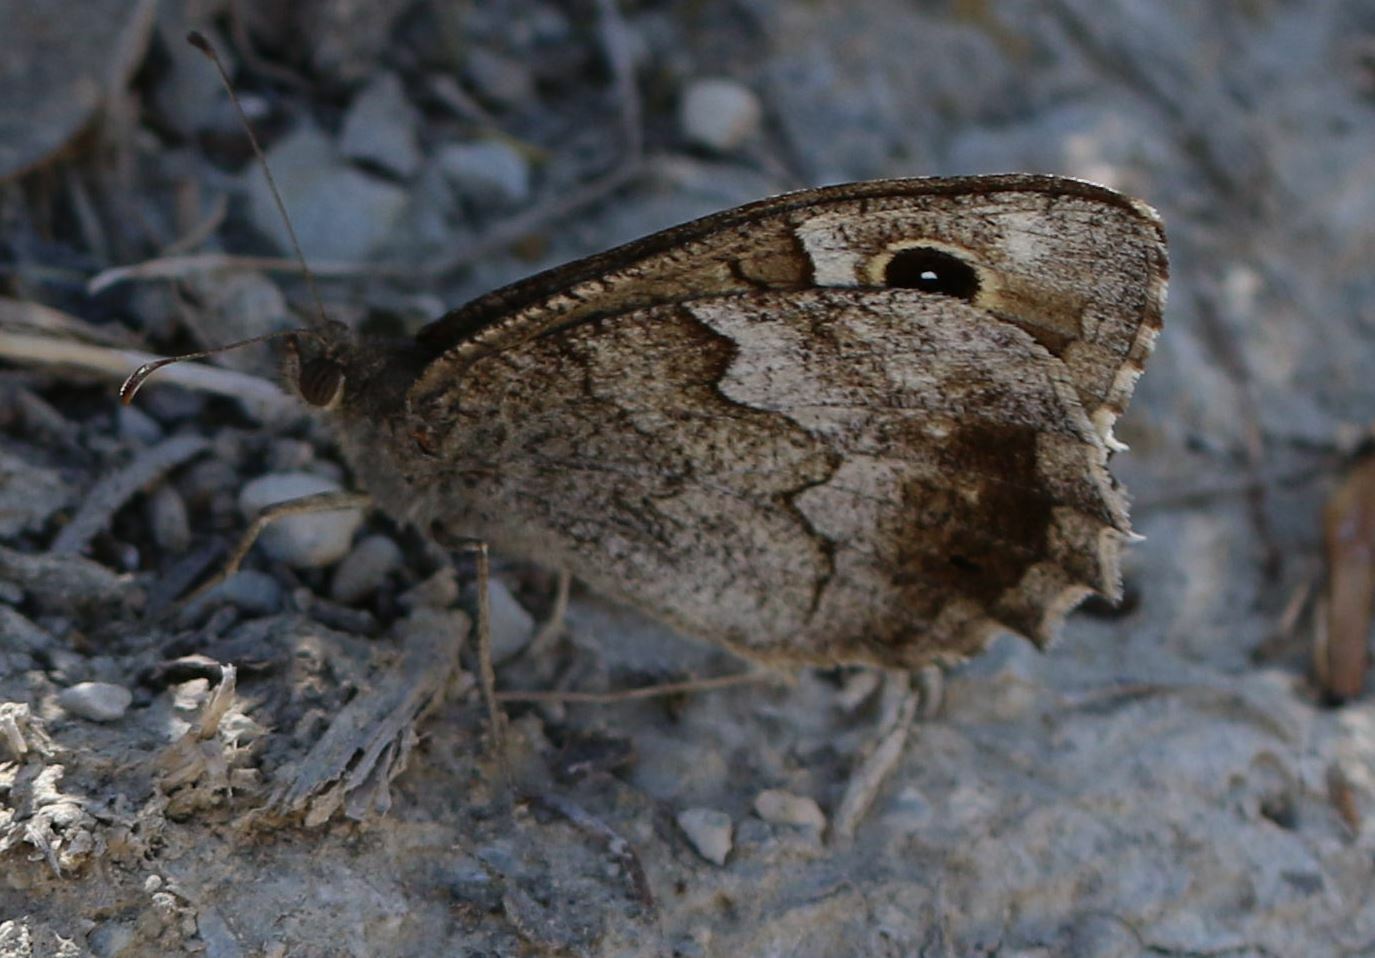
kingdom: Animalia
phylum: Arthropoda
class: Insecta
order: Lepidoptera
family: Nymphalidae
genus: Hipparchia
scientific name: Hipparchia statilinus
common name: Tree grayling
